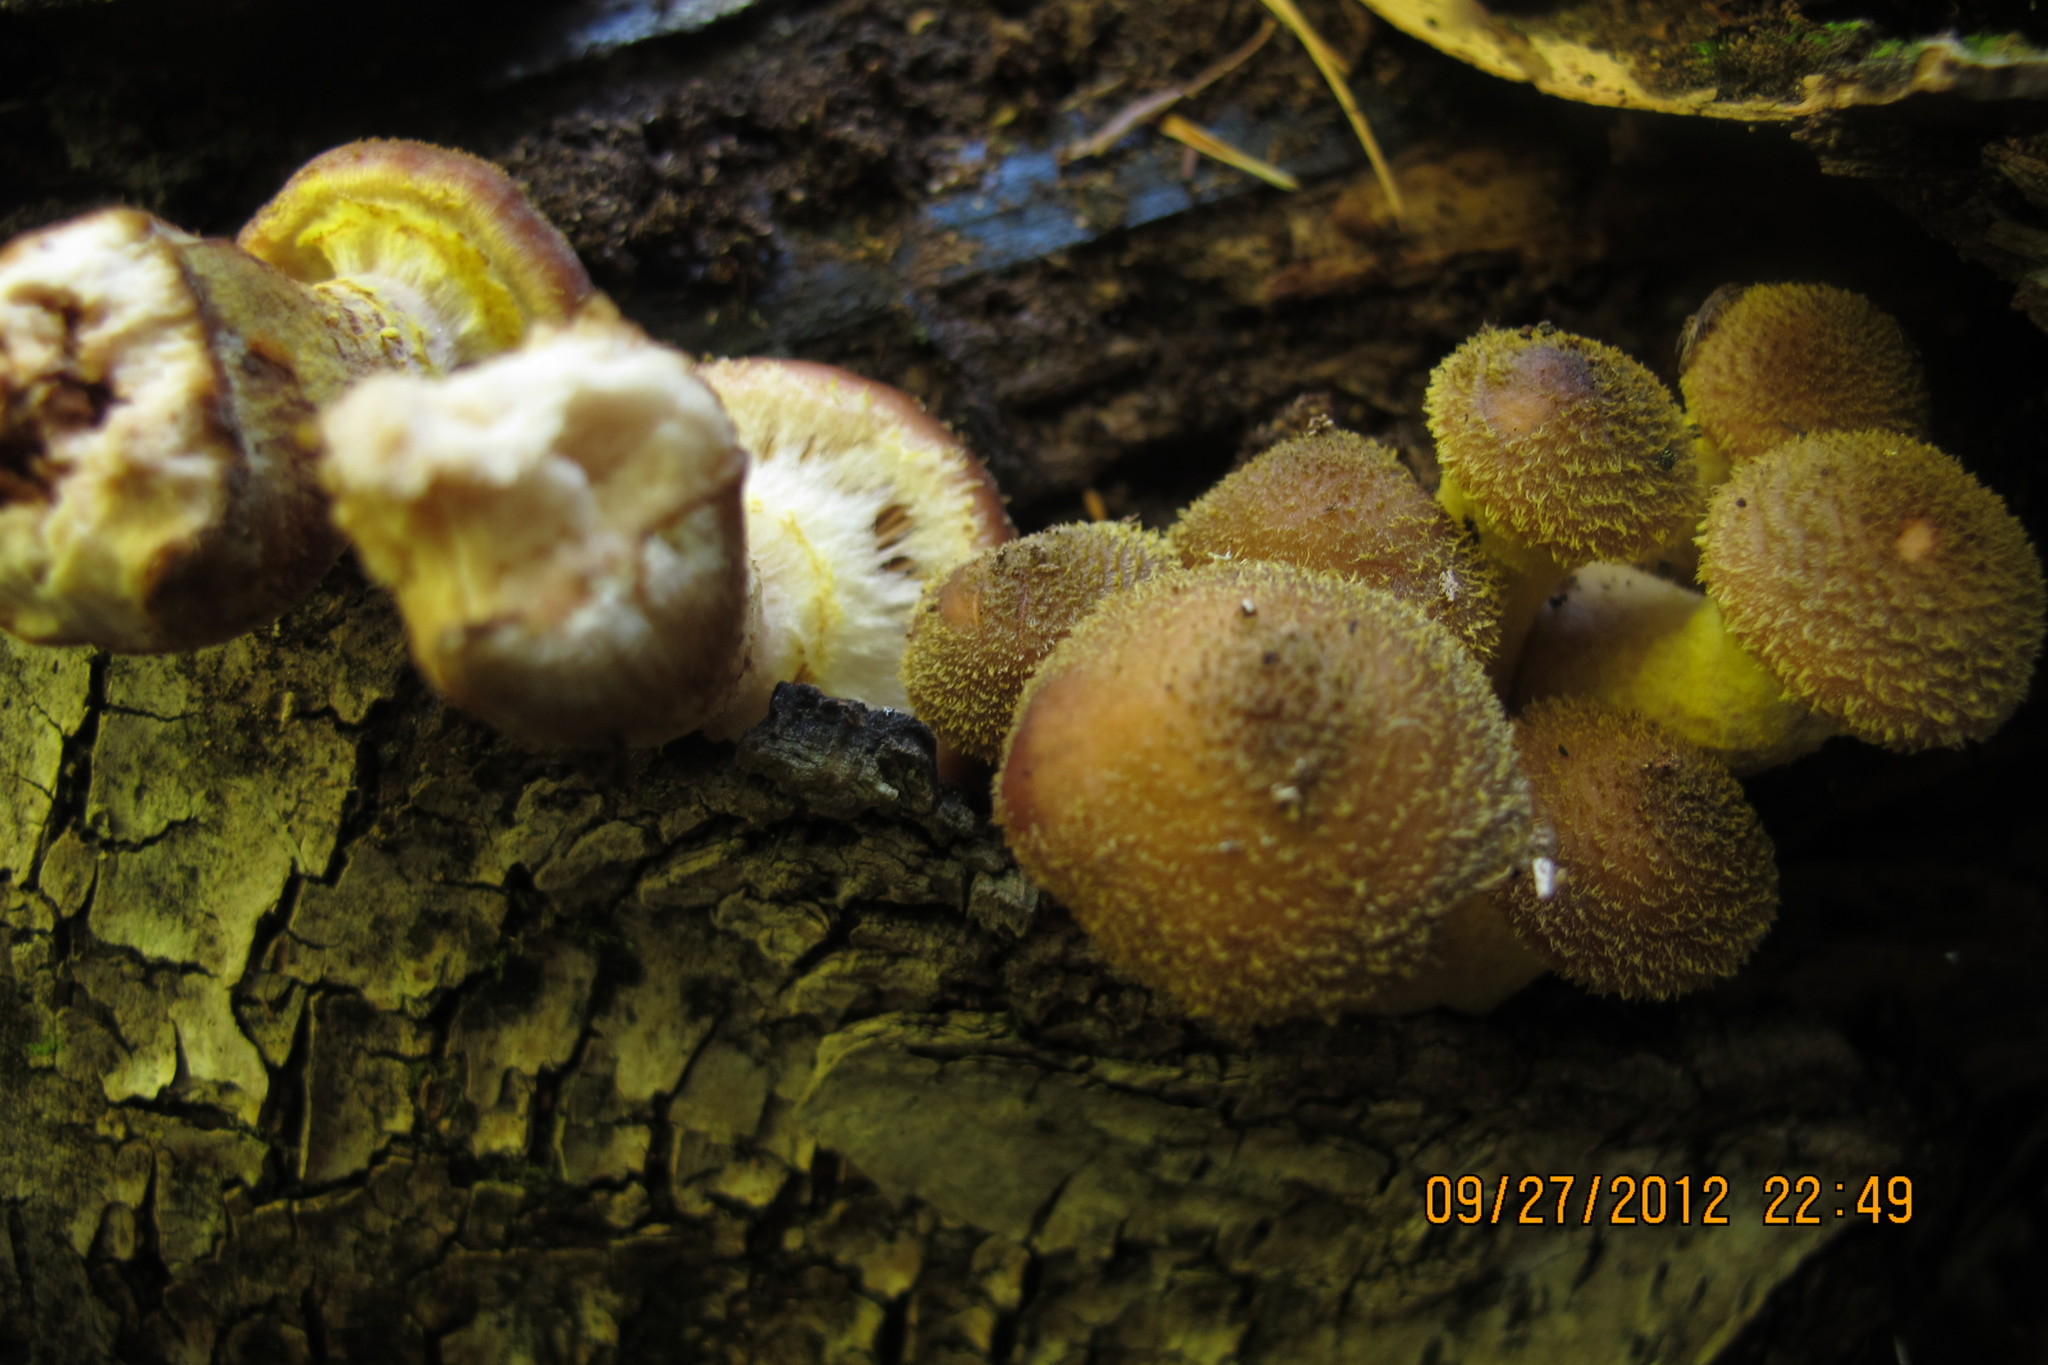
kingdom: Fungi
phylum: Basidiomycota
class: Agaricomycetes
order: Agaricales
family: Physalacriaceae
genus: Armillaria
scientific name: Armillaria sinapina
